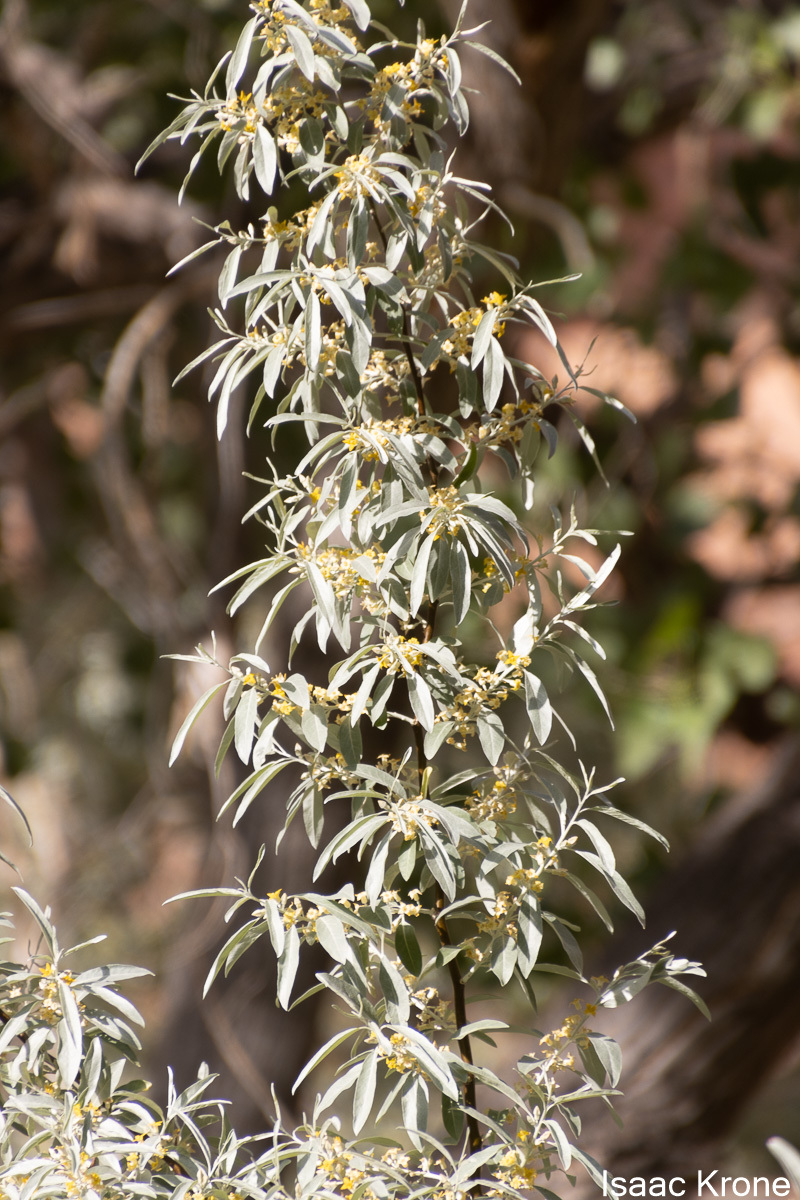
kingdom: Plantae
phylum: Tracheophyta
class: Magnoliopsida
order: Rosales
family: Elaeagnaceae
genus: Elaeagnus
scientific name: Elaeagnus angustifolia
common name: Russian olive
